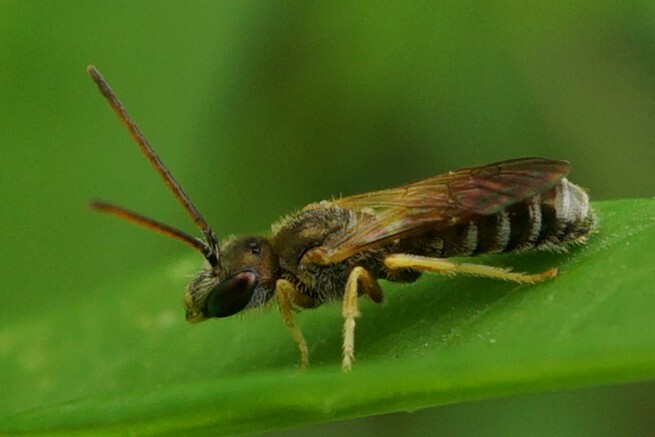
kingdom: Animalia
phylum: Arthropoda
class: Insecta
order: Hymenoptera
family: Halictidae
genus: Halictus
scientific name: Halictus aerarius
